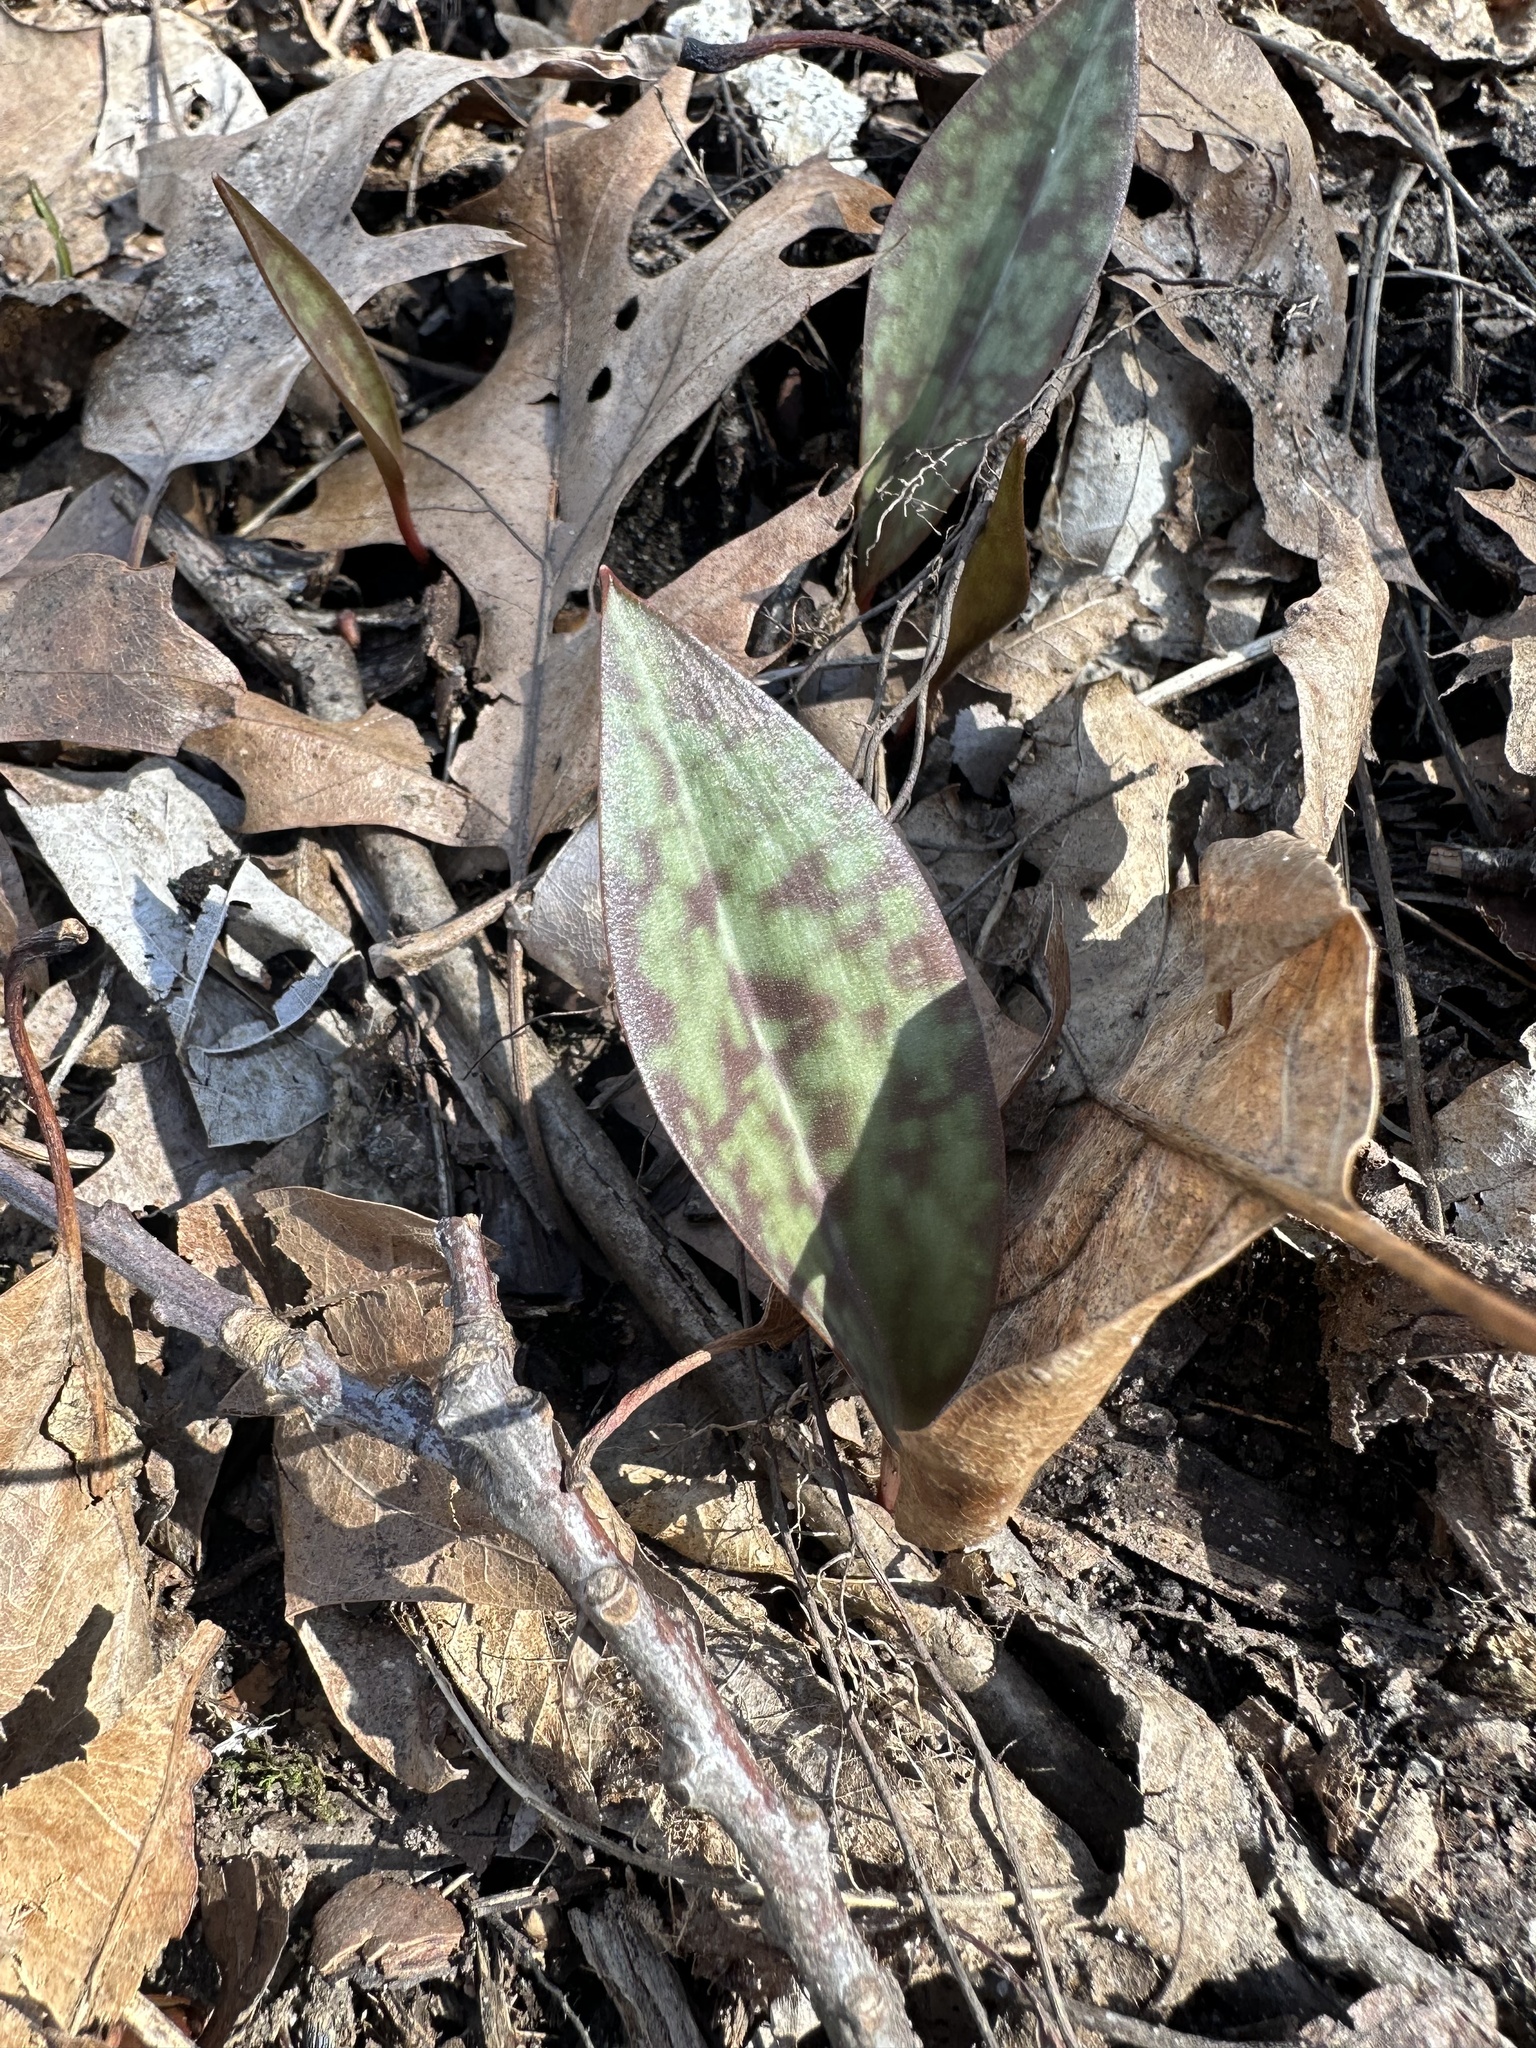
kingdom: Plantae
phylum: Tracheophyta
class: Liliopsida
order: Liliales
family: Liliaceae
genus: Erythronium
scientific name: Erythronium americanum
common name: Yellow adder's-tongue
